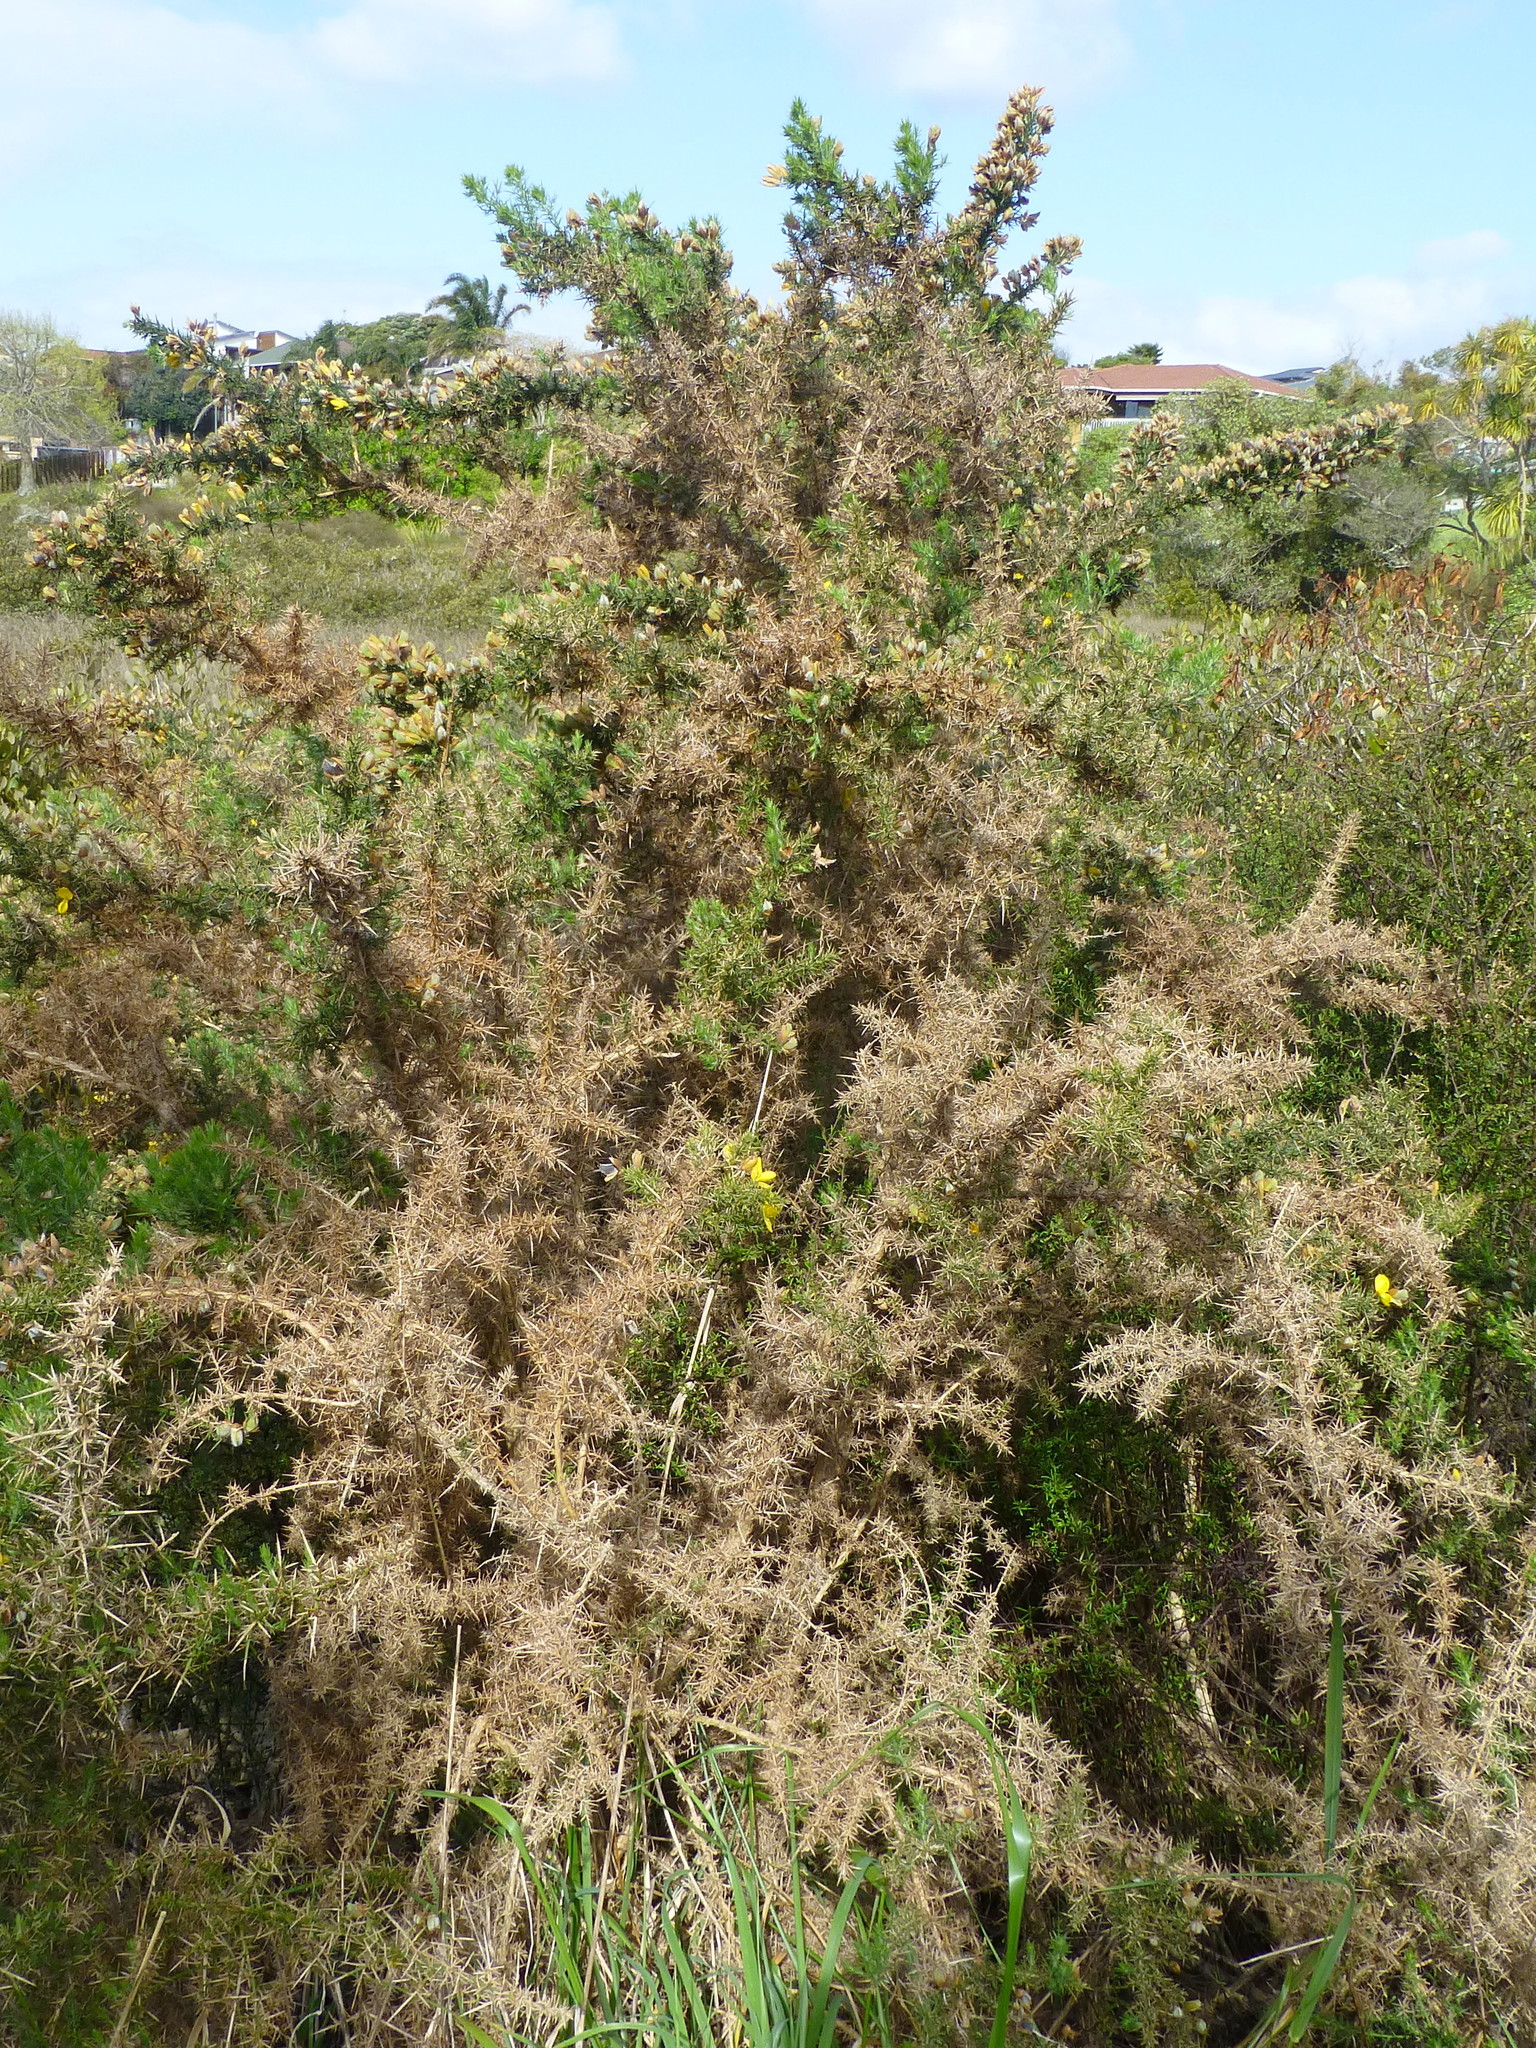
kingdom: Plantae
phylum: Tracheophyta
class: Magnoliopsida
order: Fabales
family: Fabaceae
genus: Ulex
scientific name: Ulex europaeus
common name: Common gorse
